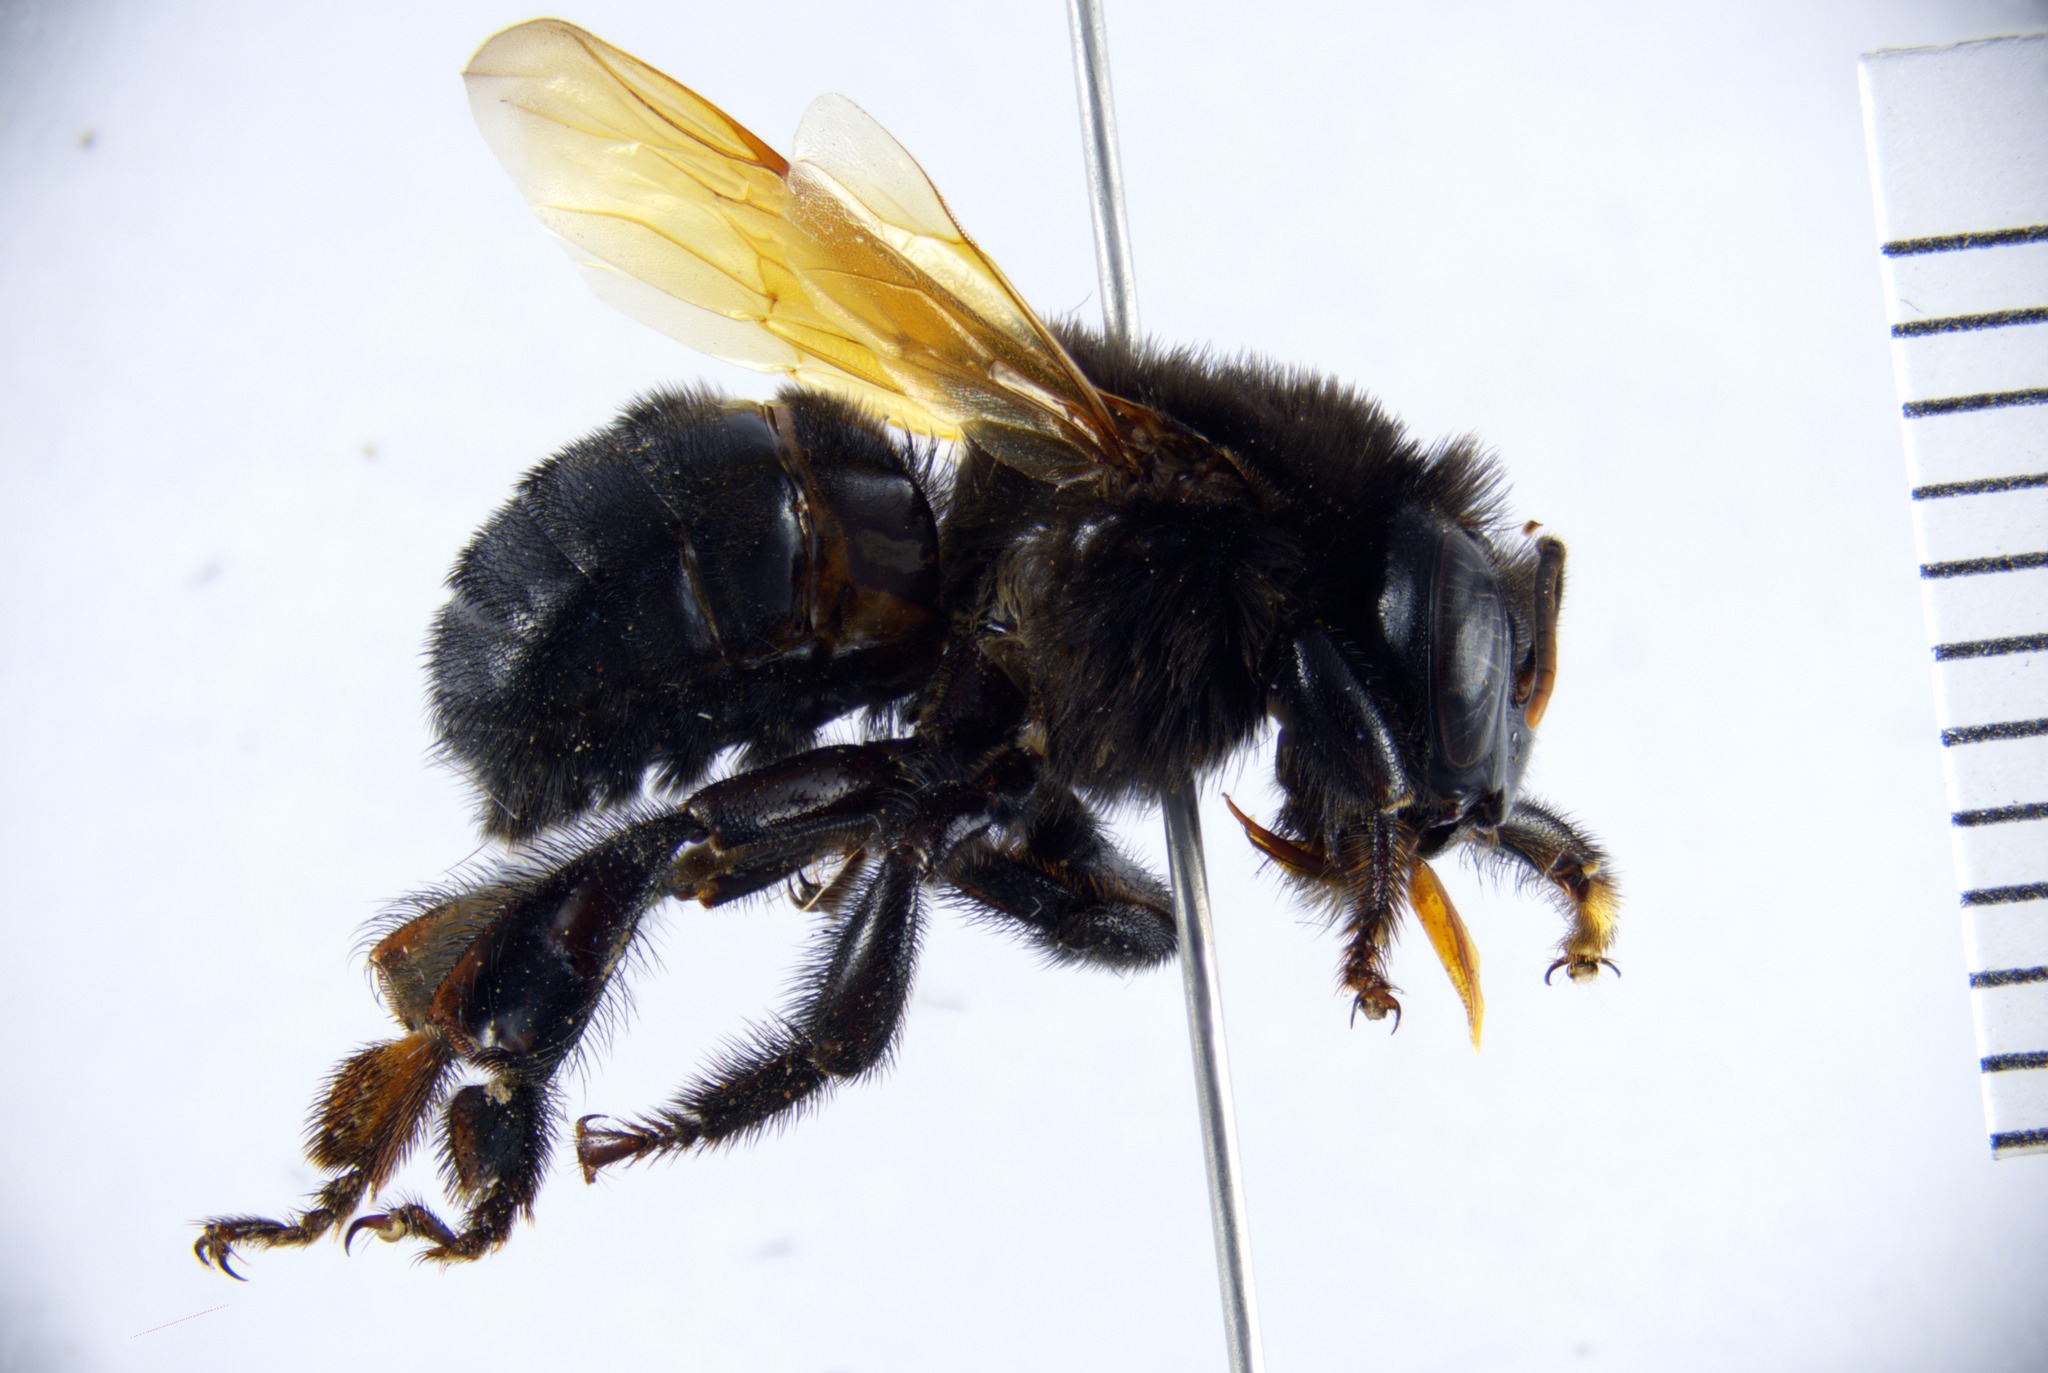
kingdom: Animalia
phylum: Arthropoda
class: Insecta
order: Hymenoptera
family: Apidae
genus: Melipona
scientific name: Melipona titania
